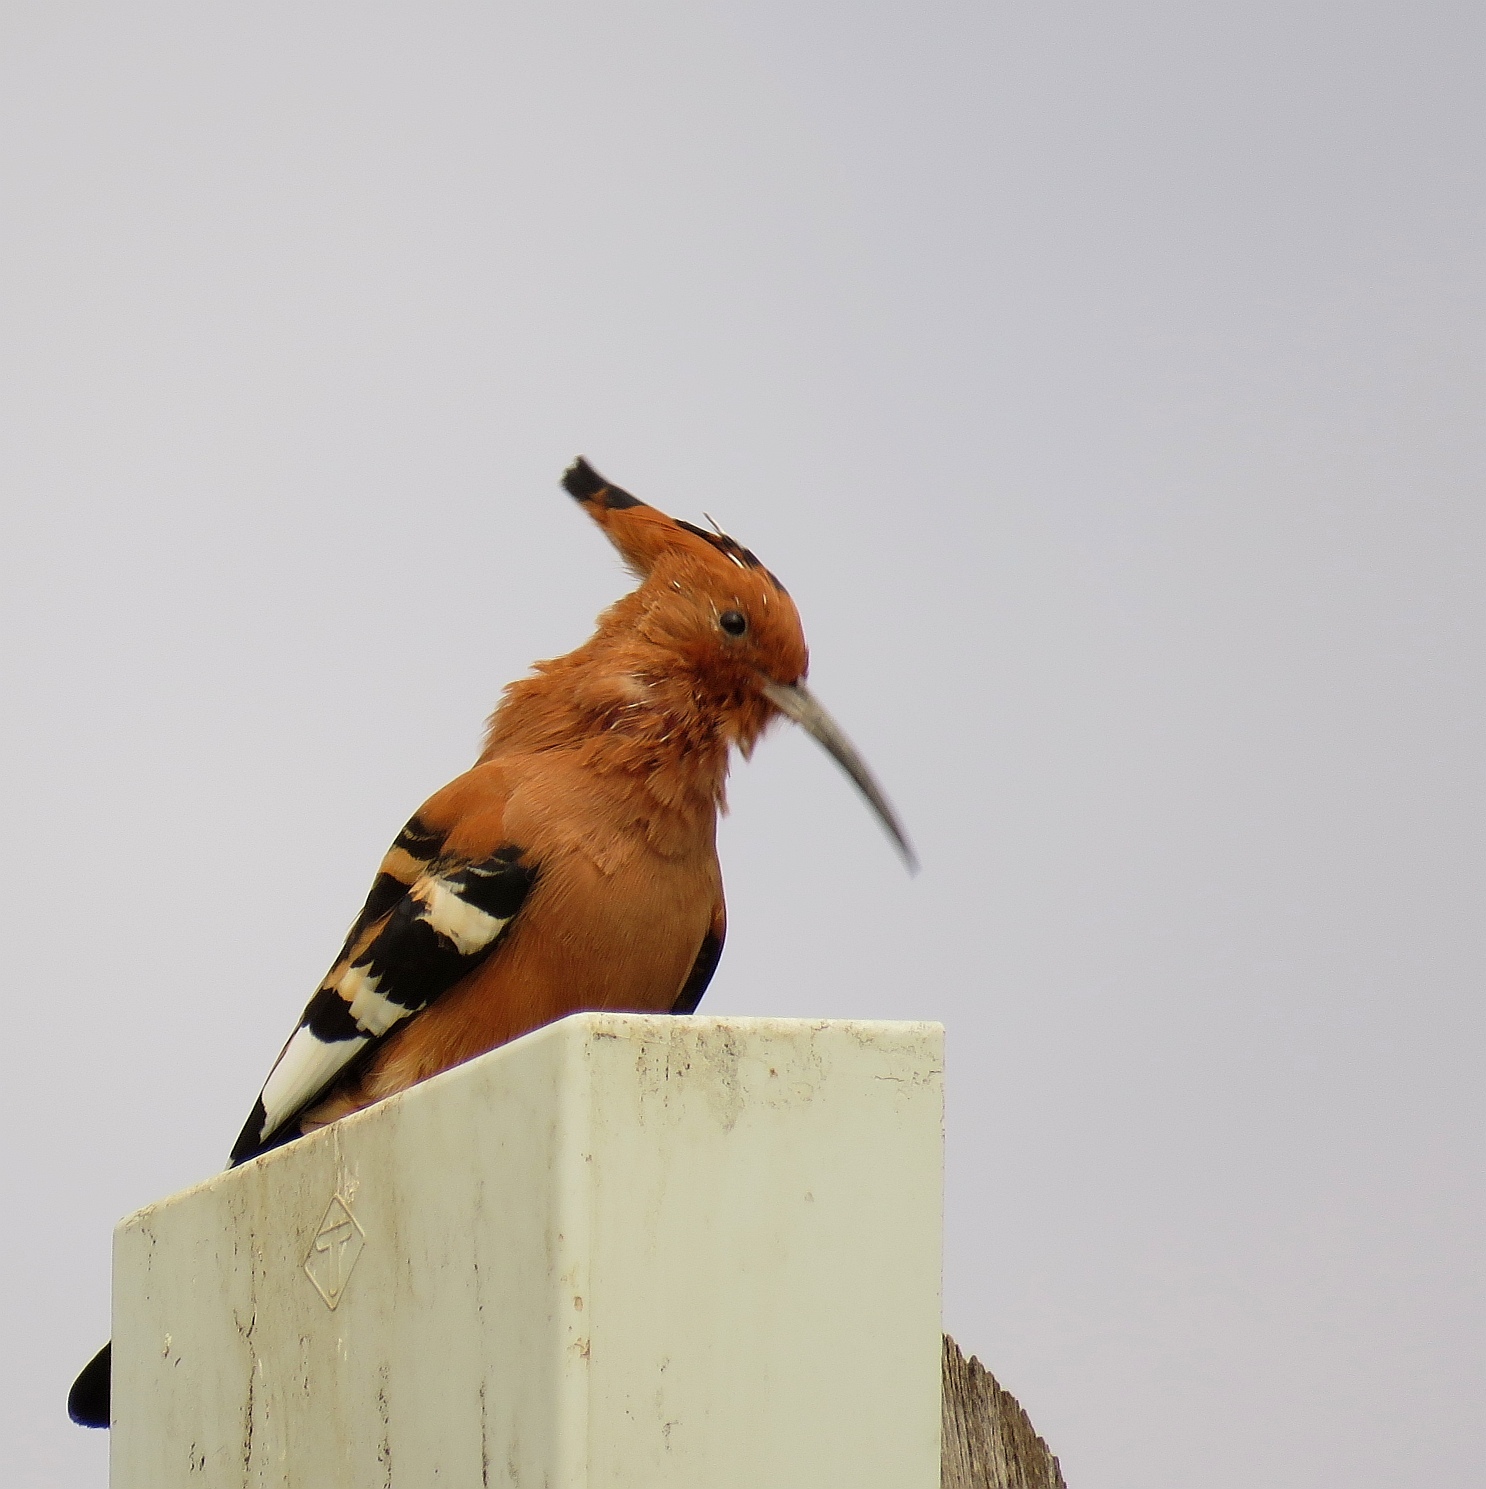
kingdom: Animalia
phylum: Chordata
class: Aves
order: Bucerotiformes
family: Upupidae
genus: Upupa
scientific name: Upupa africana
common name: African hoopoe
